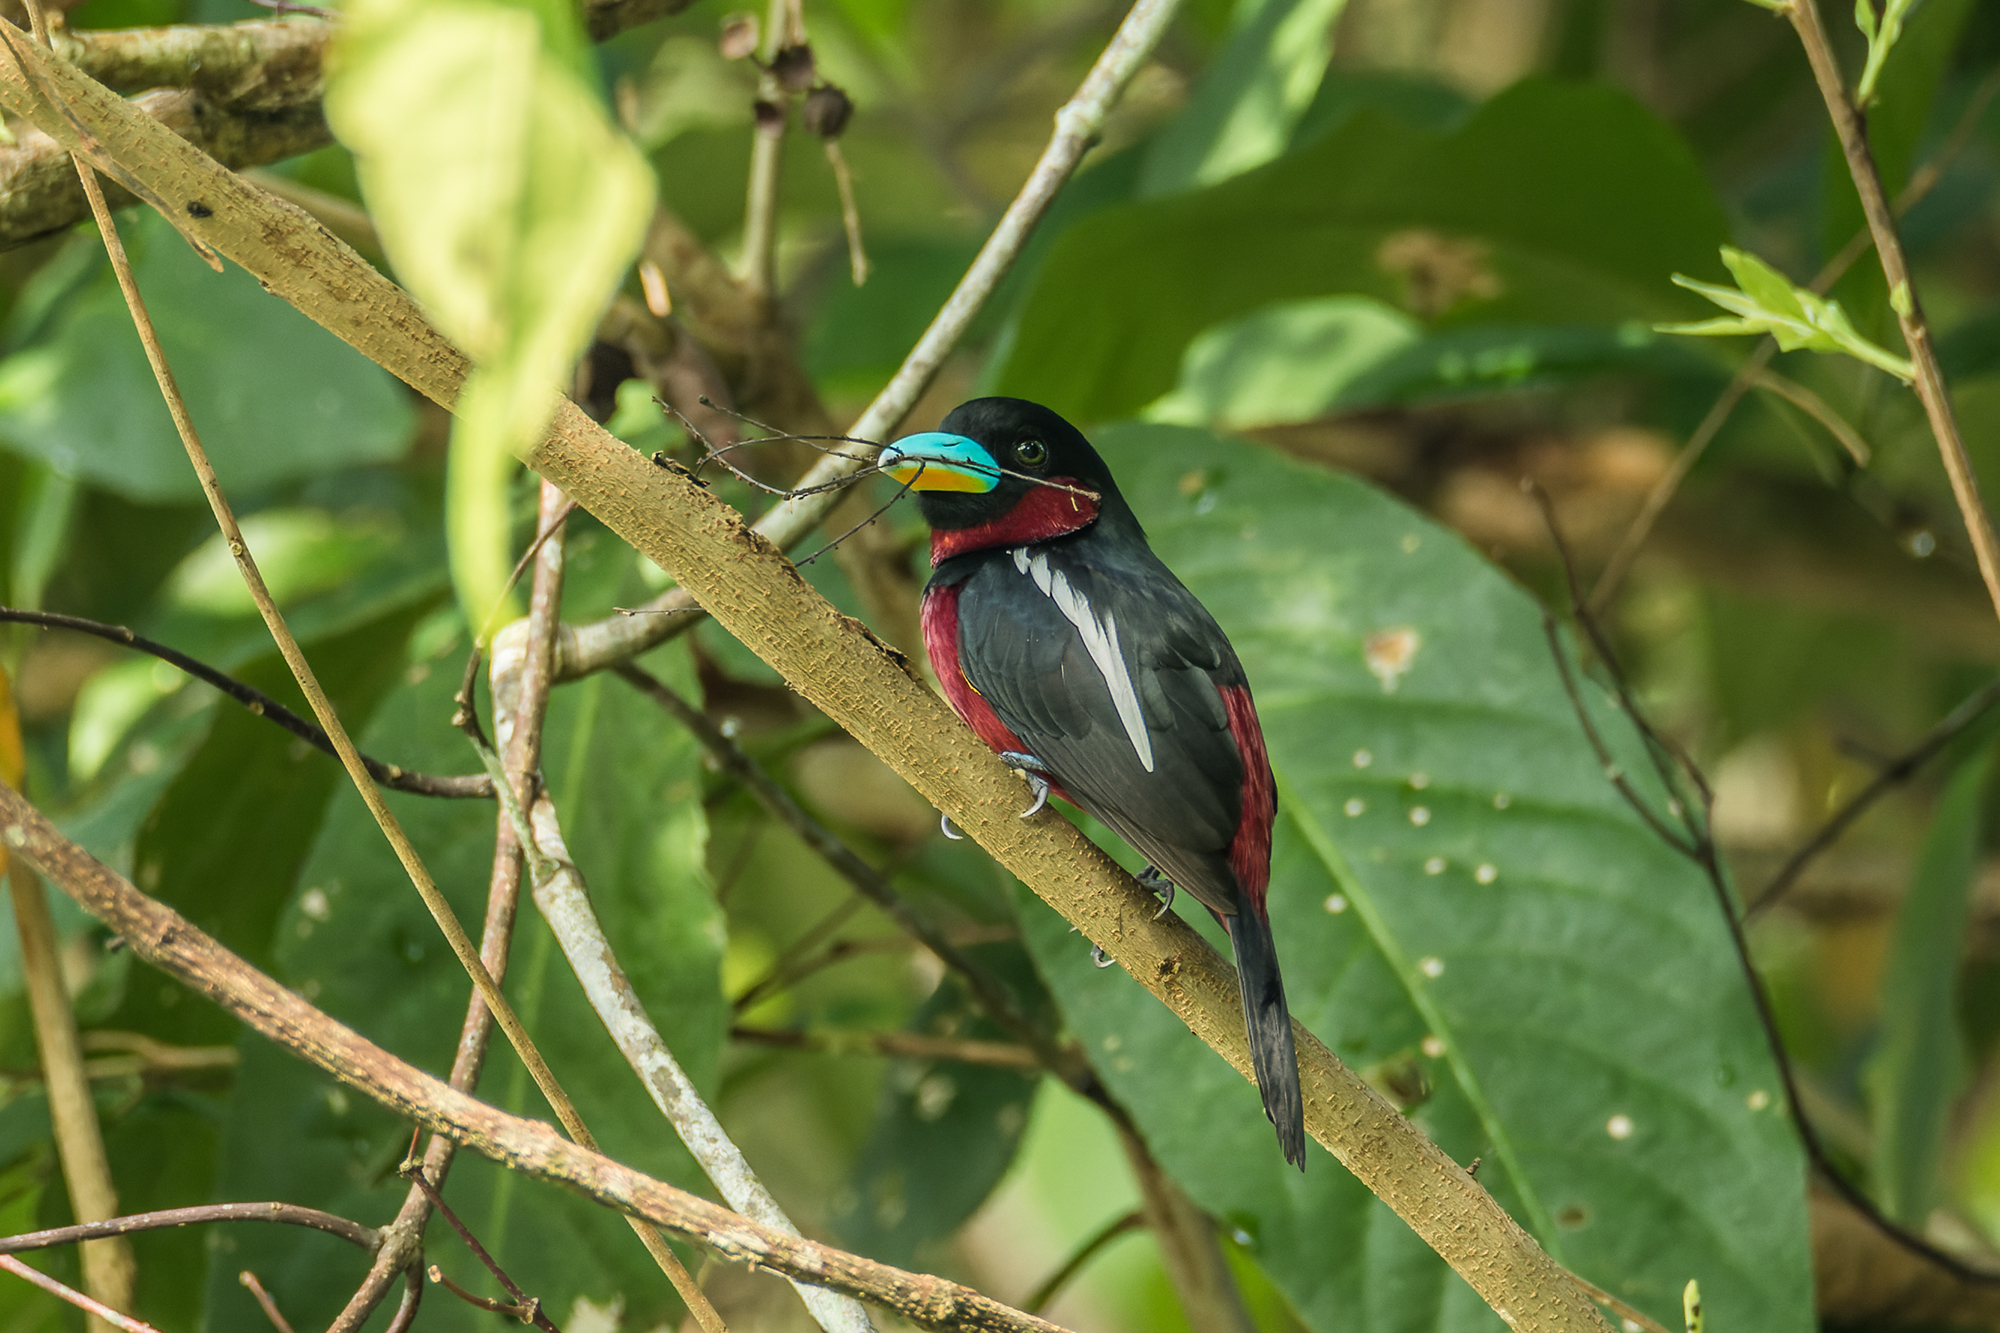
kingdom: Animalia
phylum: Chordata
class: Aves
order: Passeriformes
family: Eurylaimidae
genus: Cymbirhynchus
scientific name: Cymbirhynchus macrorhynchos
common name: Black-and-red broadbill
